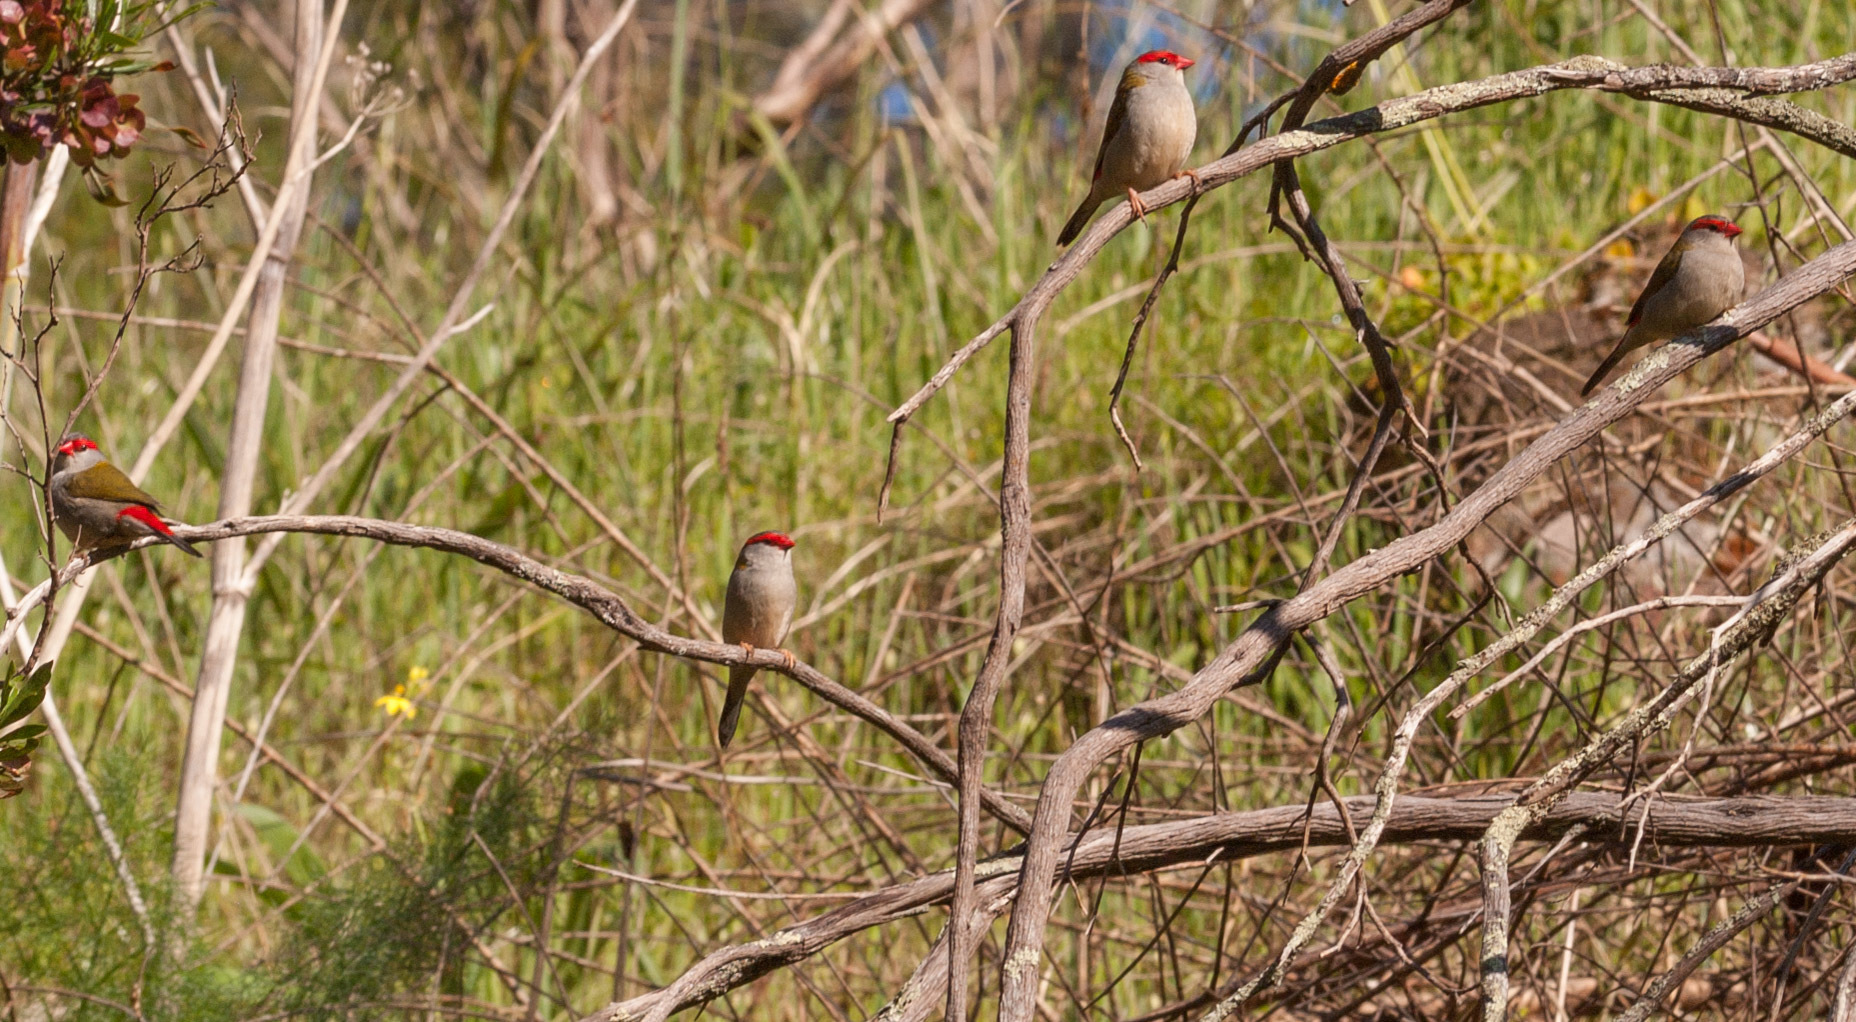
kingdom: Animalia
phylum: Chordata
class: Aves
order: Passeriformes
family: Estrildidae
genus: Neochmia
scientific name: Neochmia temporalis
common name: Red-browed finch
